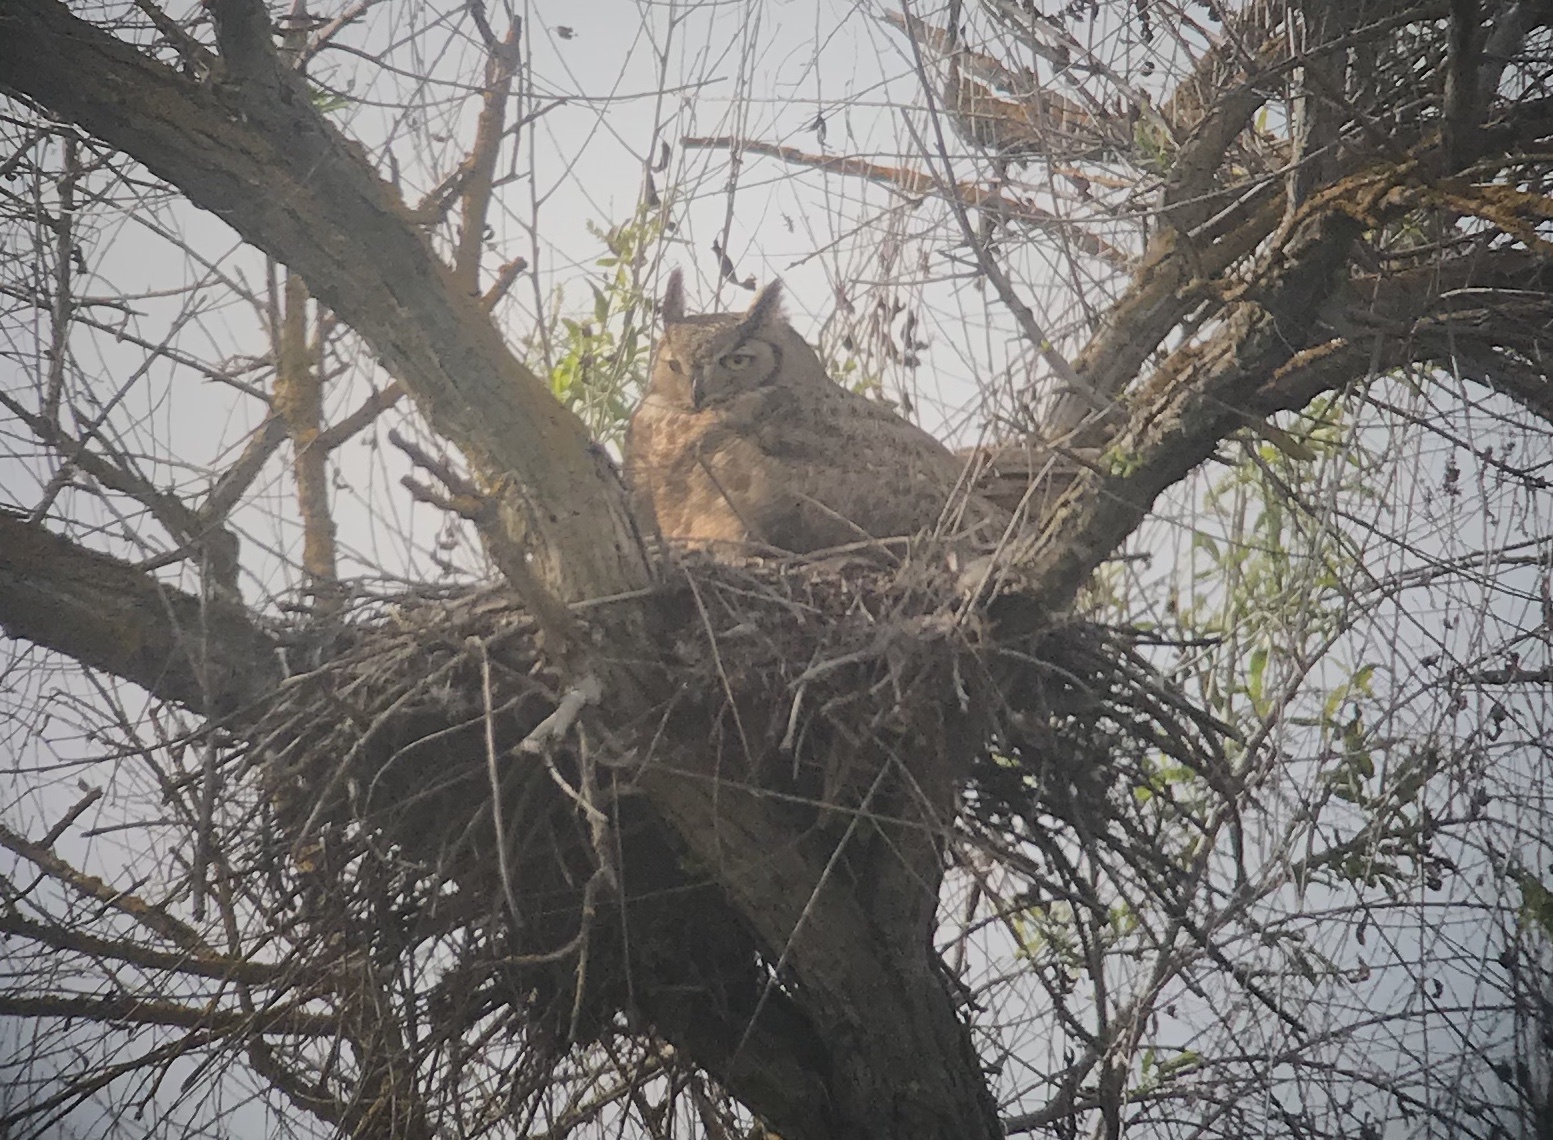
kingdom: Animalia
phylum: Chordata
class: Aves
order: Strigiformes
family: Strigidae
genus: Bubo
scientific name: Bubo virginianus
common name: Great horned owl
